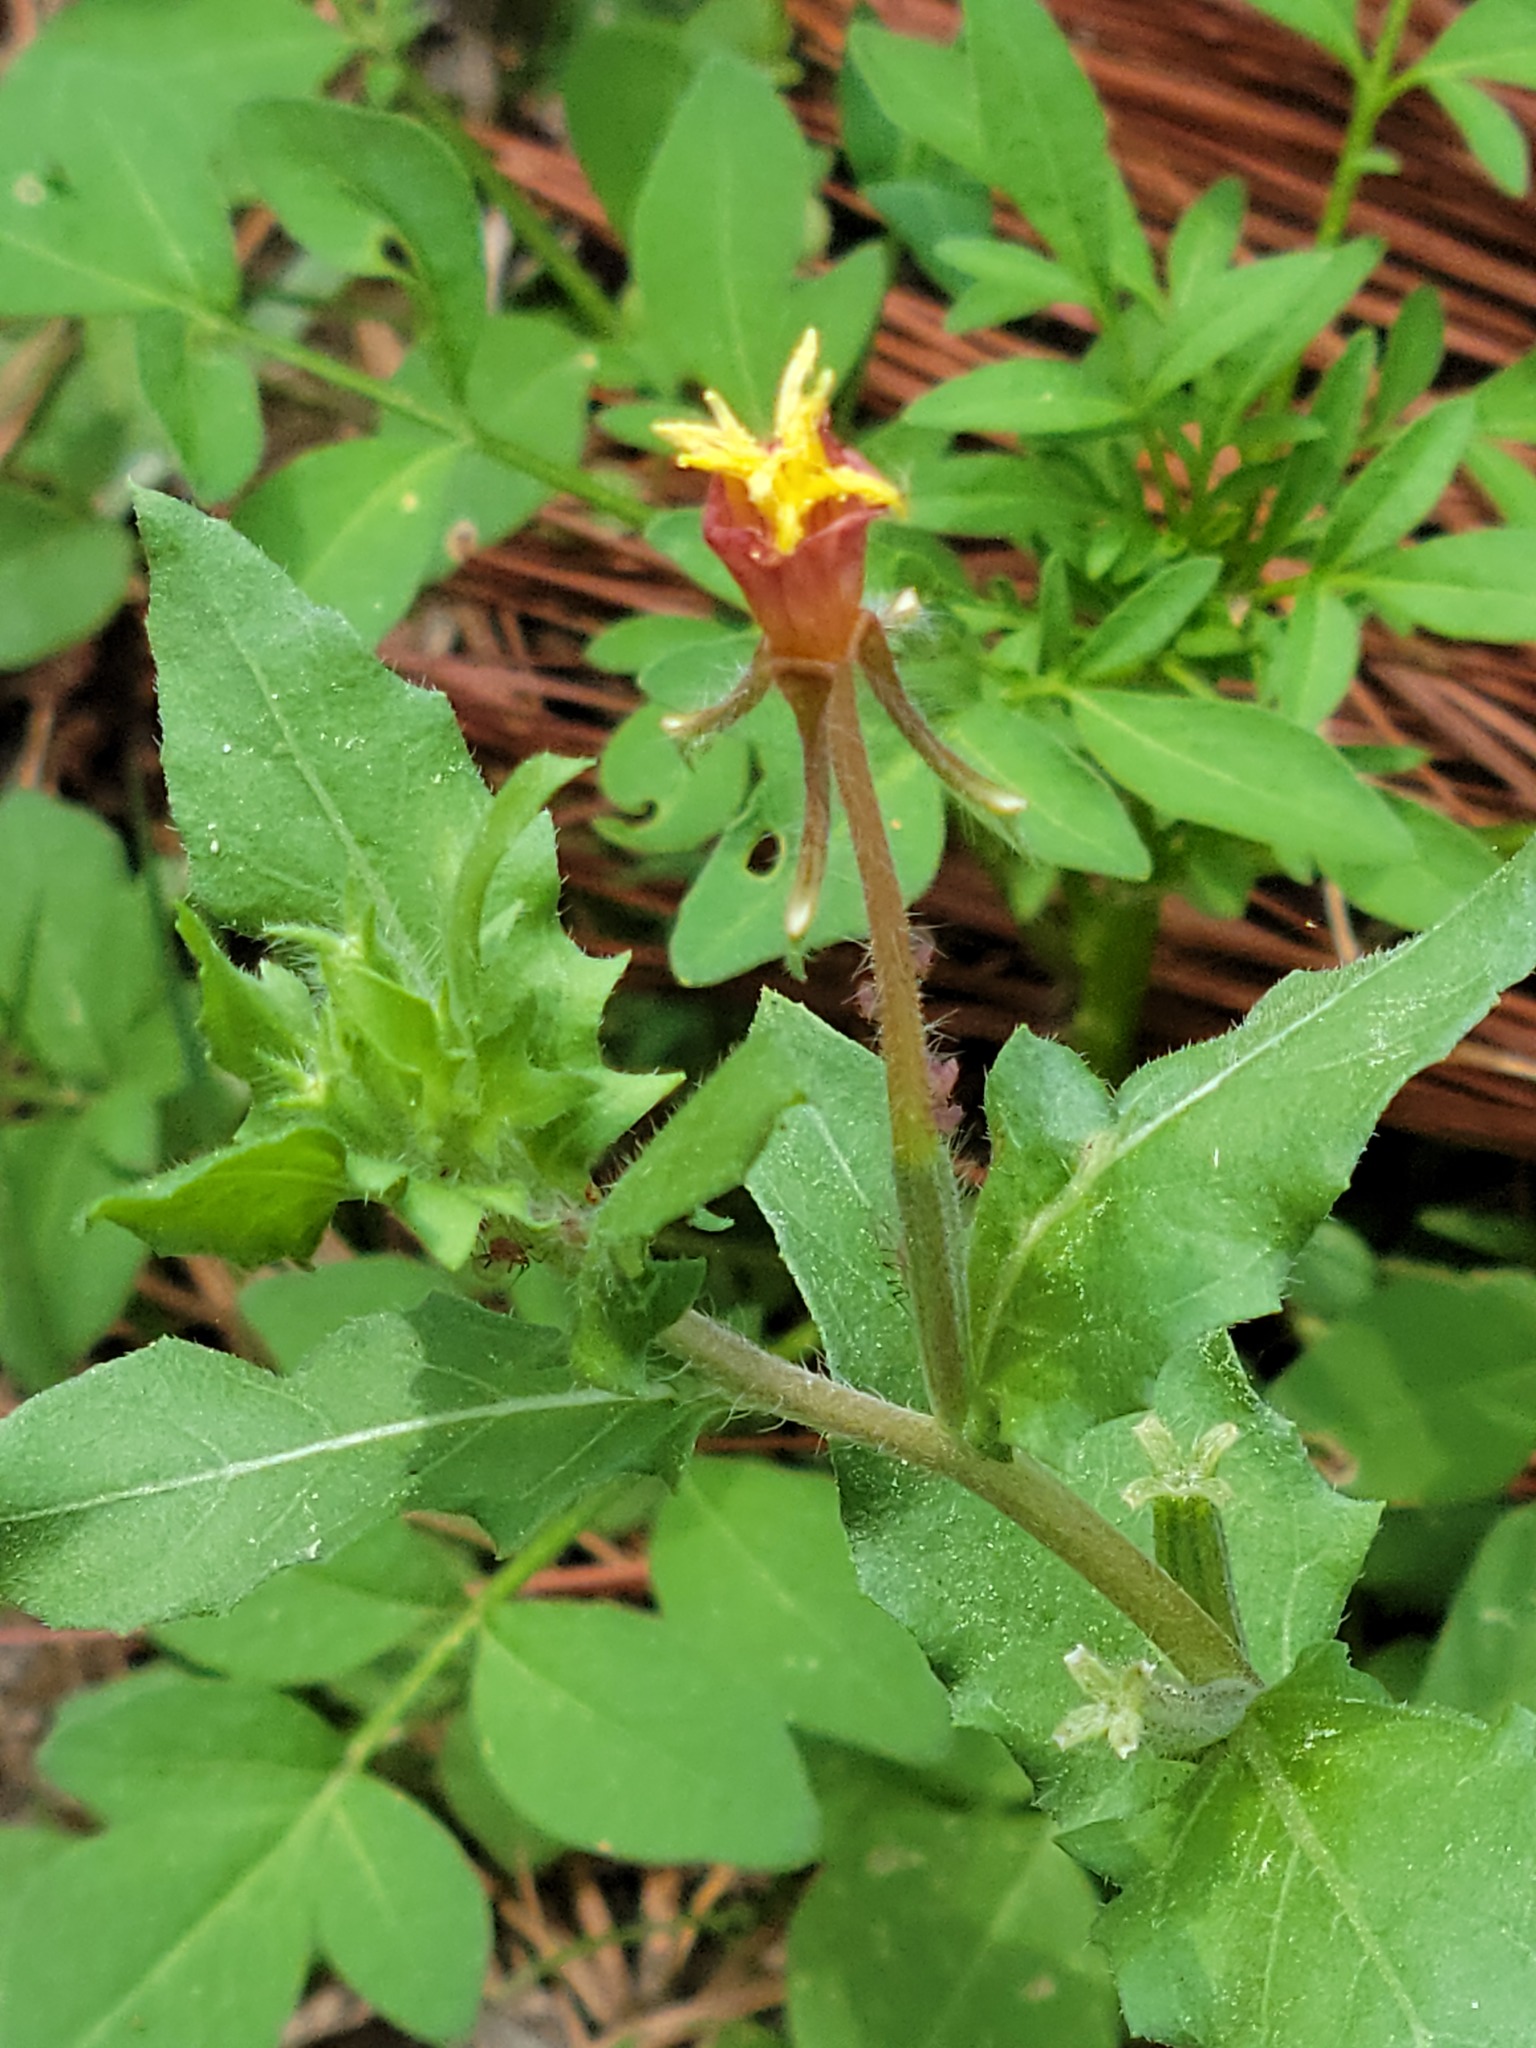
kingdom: Plantae
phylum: Tracheophyta
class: Magnoliopsida
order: Myrtales
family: Onagraceae
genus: Oenothera
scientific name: Oenothera laciniata
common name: Cut-leaved evening-primrose
